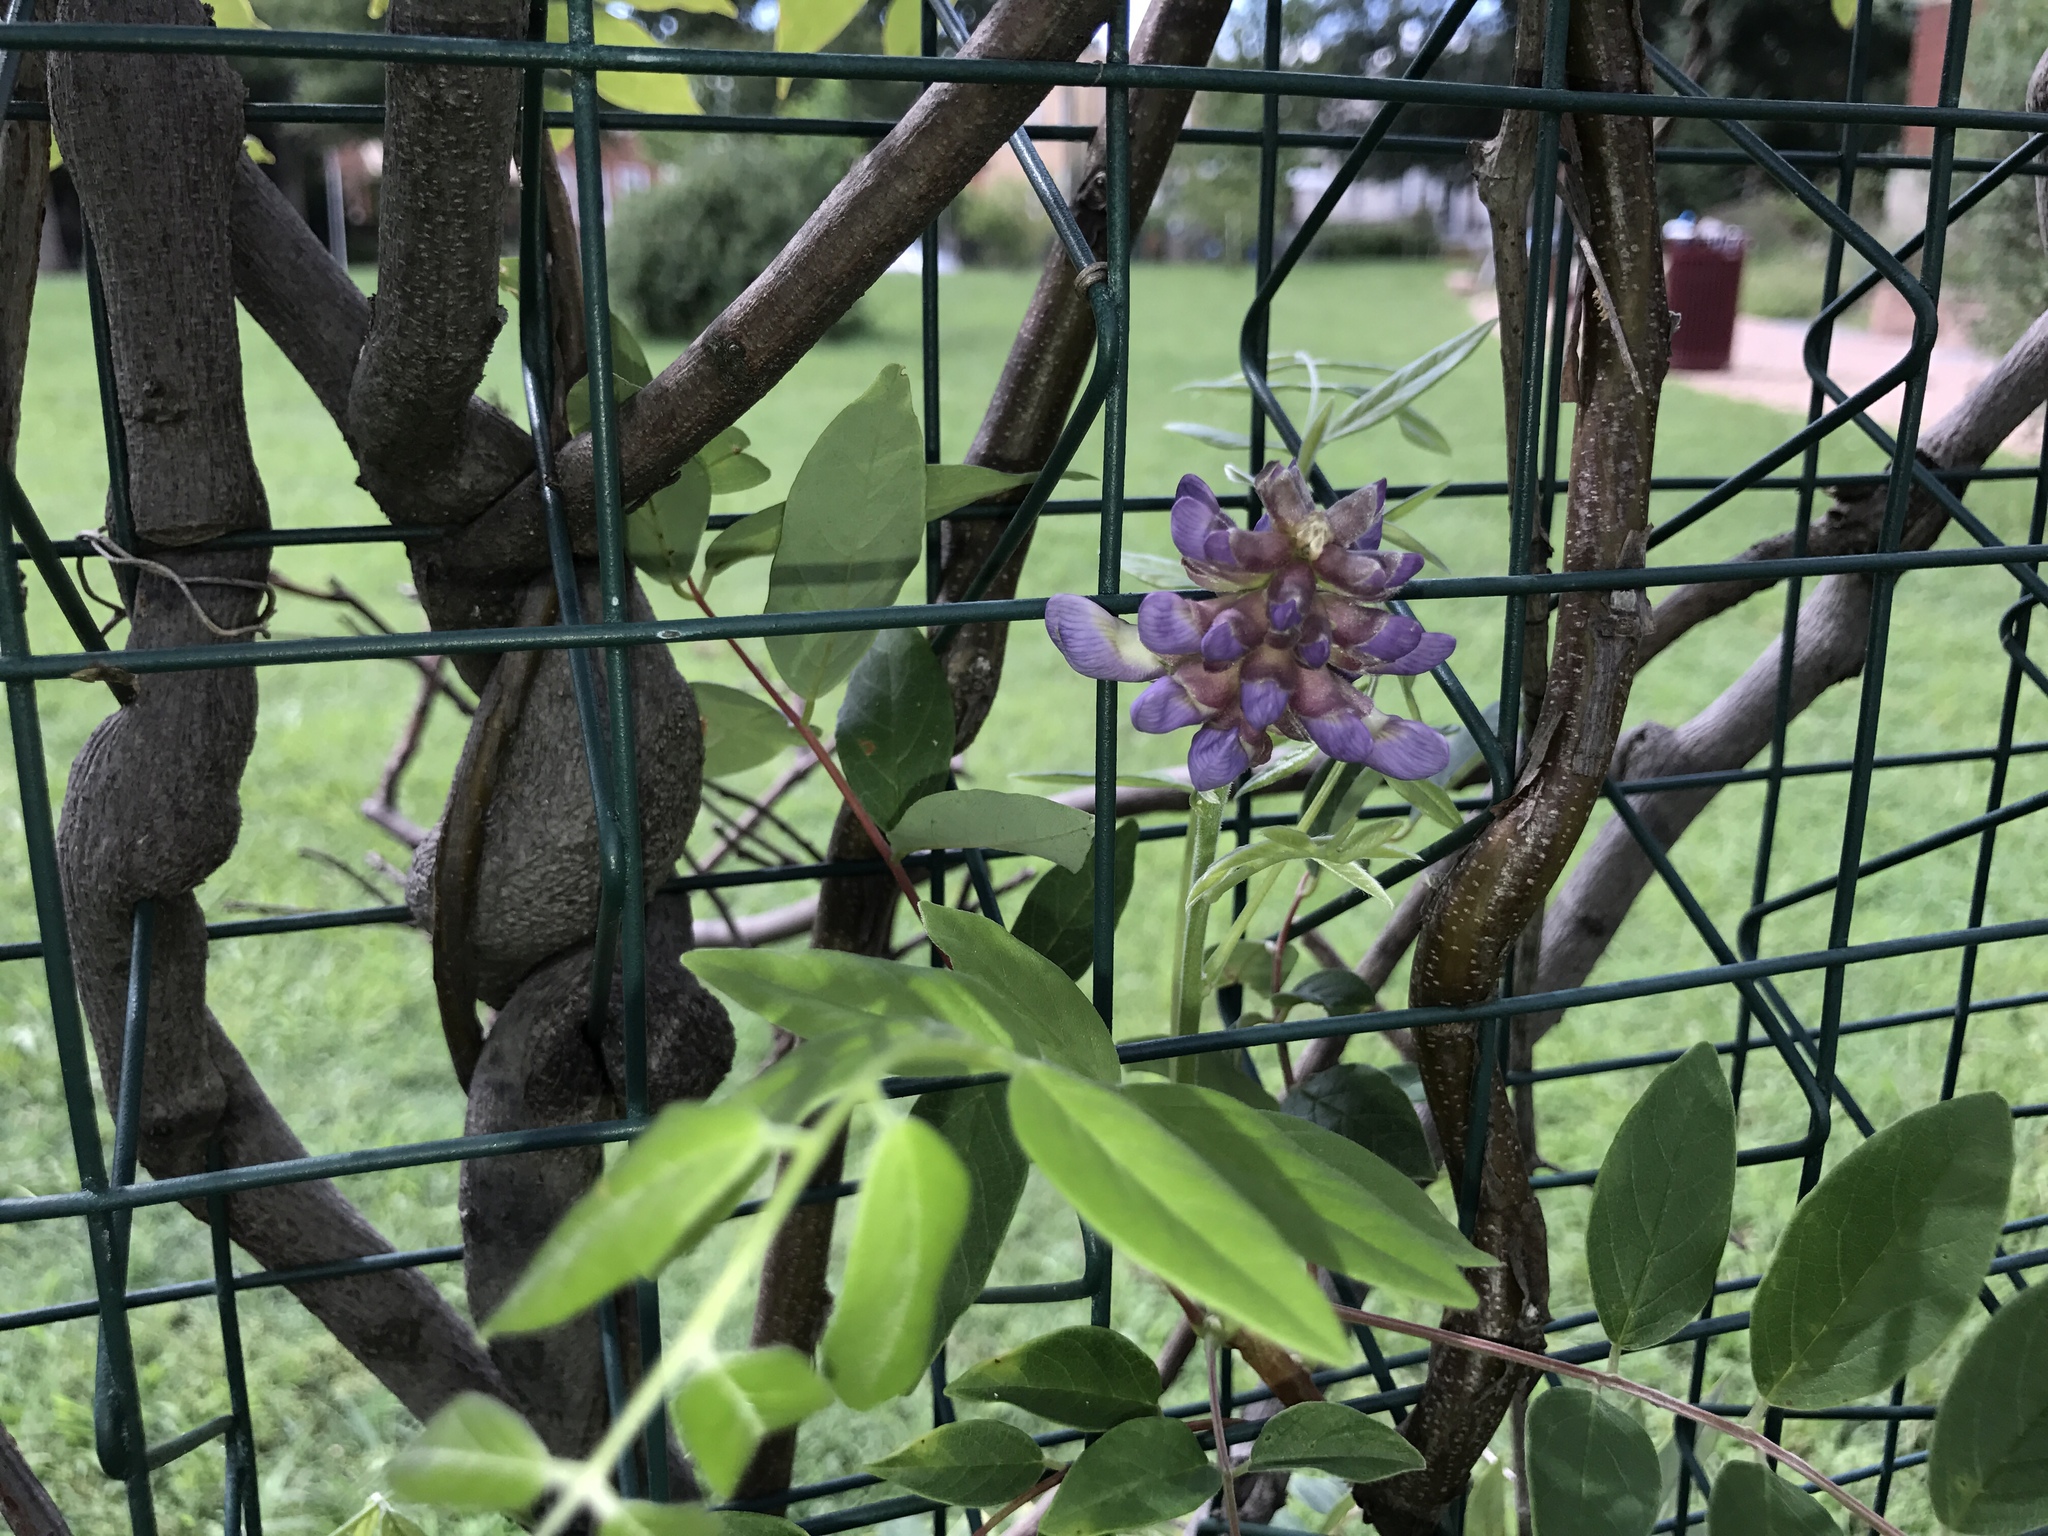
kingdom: Plantae
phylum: Tracheophyta
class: Magnoliopsida
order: Fabales
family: Fabaceae
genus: Wisteria
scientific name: Wisteria frutescens
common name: American wisteria
